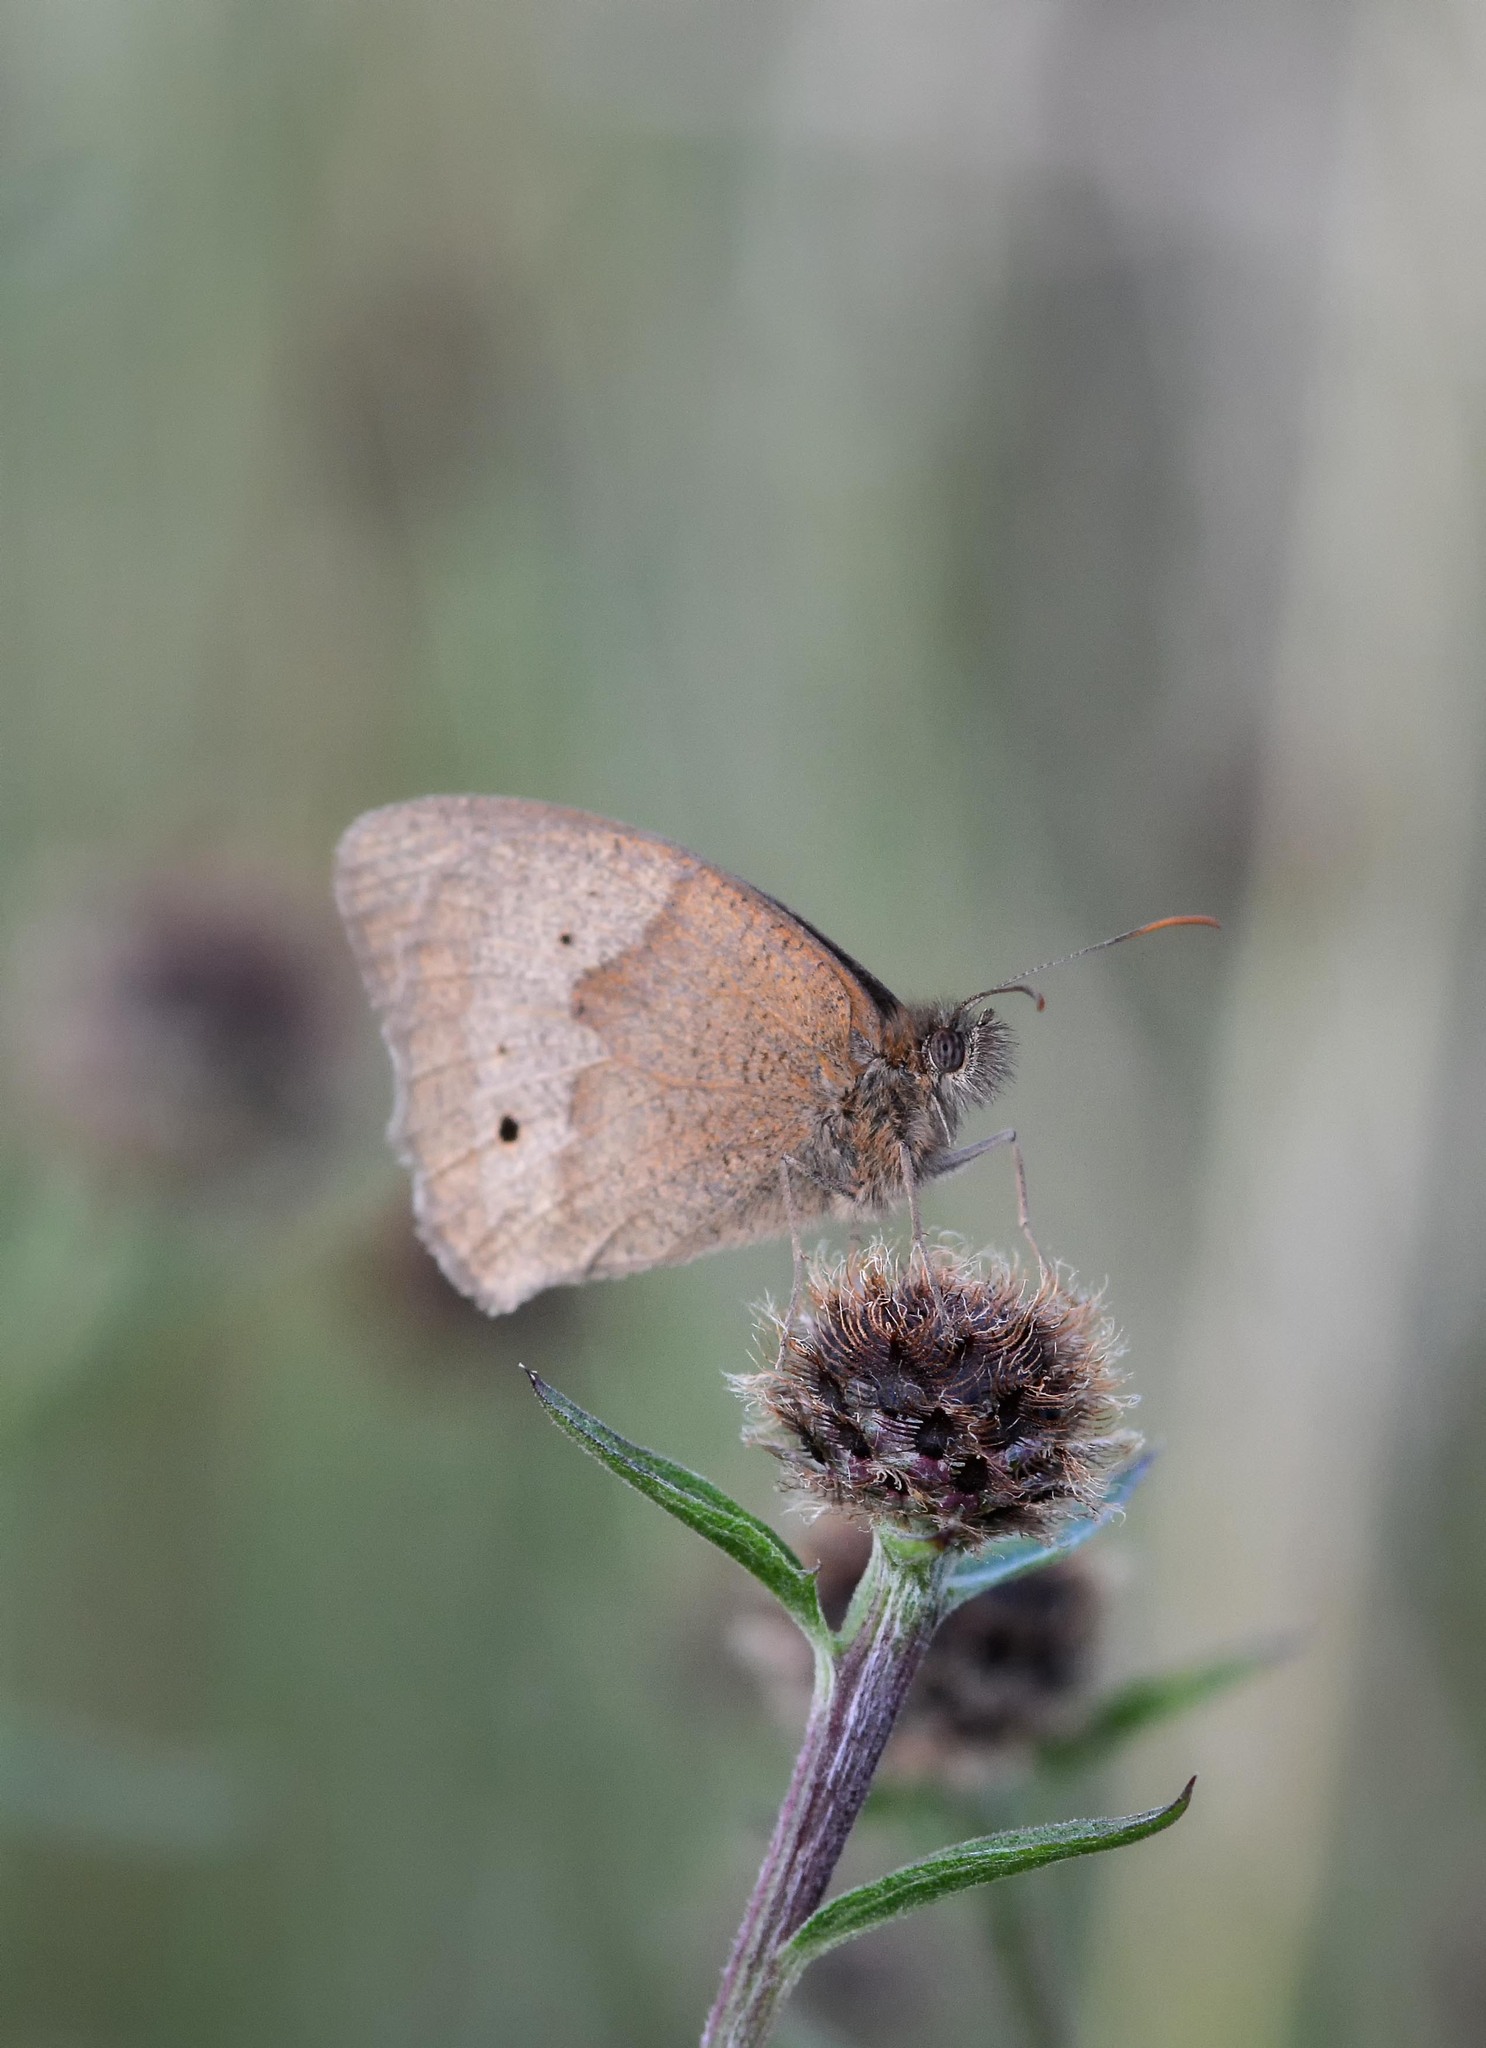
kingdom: Animalia
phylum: Arthropoda
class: Insecta
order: Lepidoptera
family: Nymphalidae
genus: Maniola
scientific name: Maniola jurtina
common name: Meadow brown
